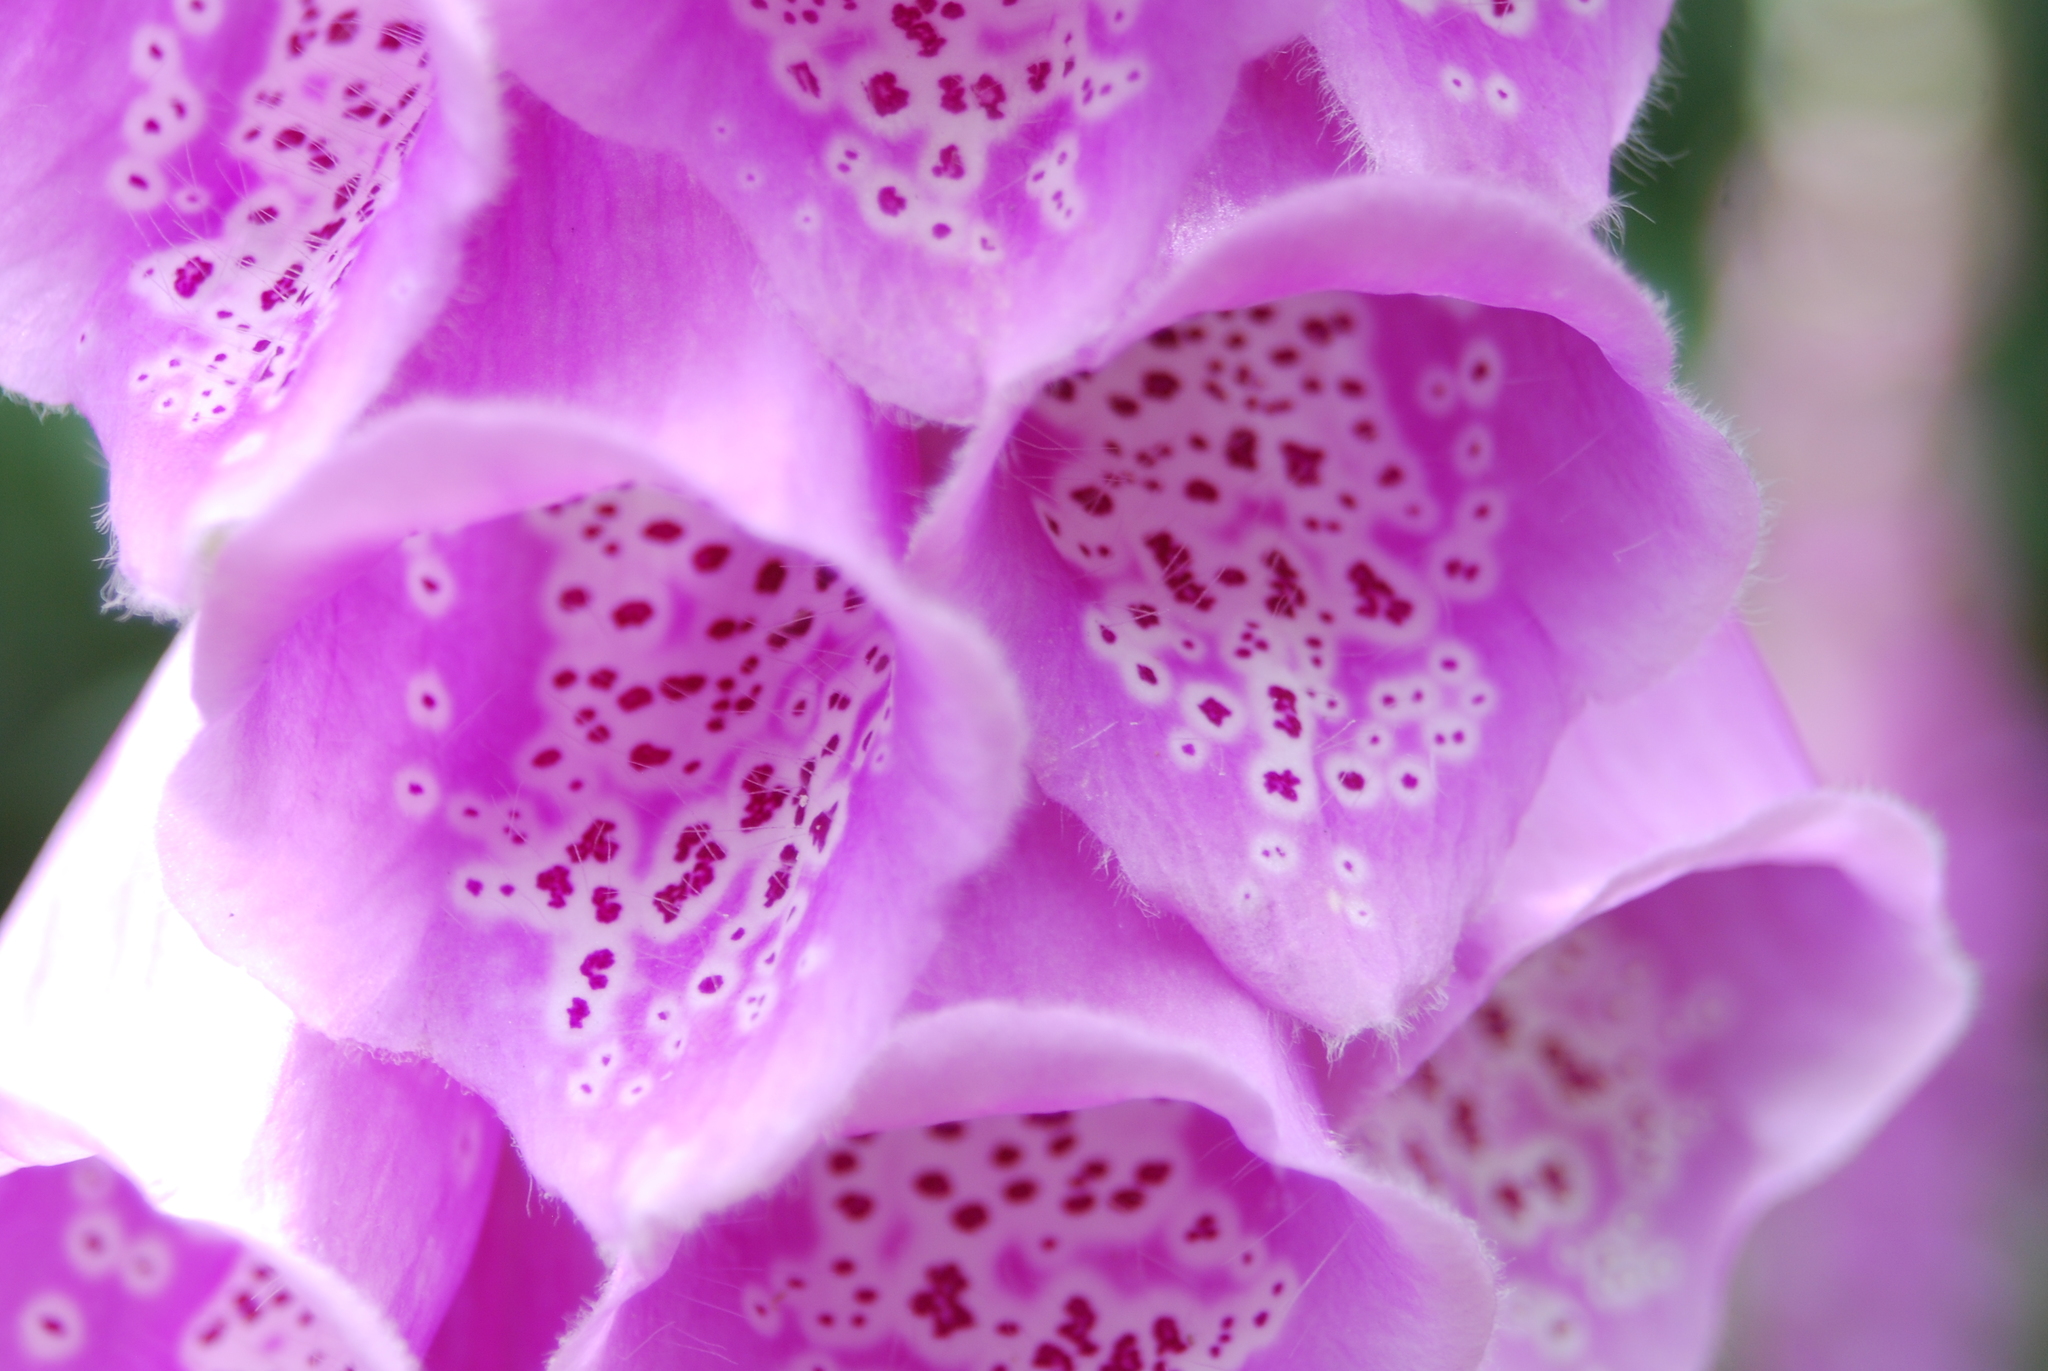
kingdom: Plantae
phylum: Tracheophyta
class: Magnoliopsida
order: Lamiales
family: Plantaginaceae
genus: Digitalis
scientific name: Digitalis purpurea
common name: Foxglove
